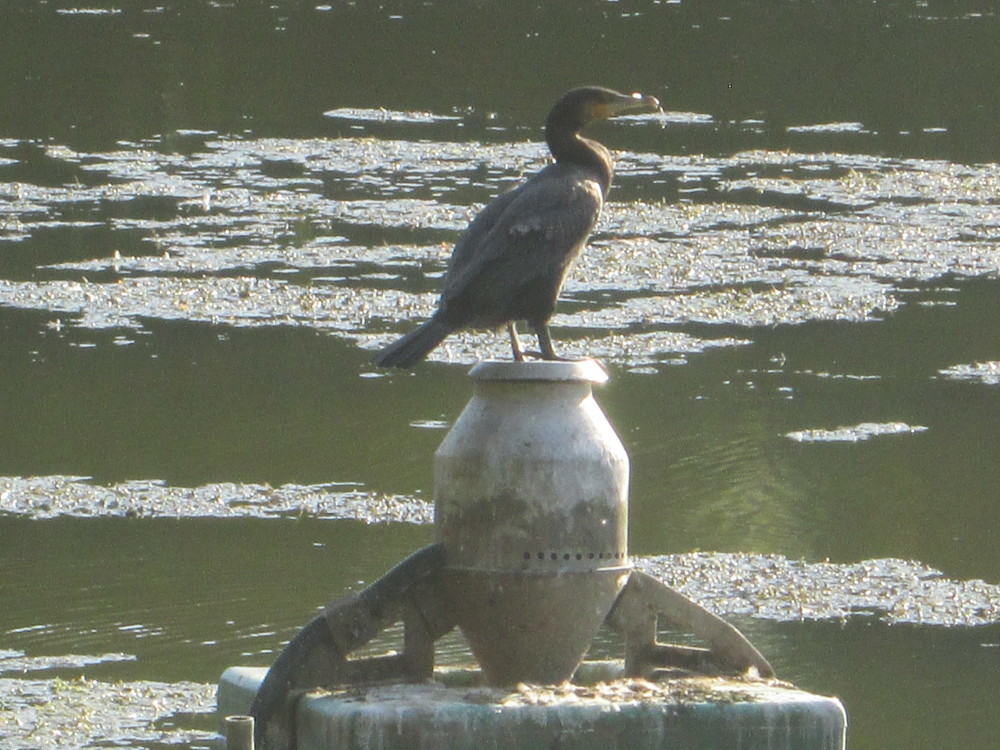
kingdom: Animalia
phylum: Chordata
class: Aves
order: Suliformes
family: Phalacrocoracidae
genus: Phalacrocorax
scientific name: Phalacrocorax carbo
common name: Great cormorant
